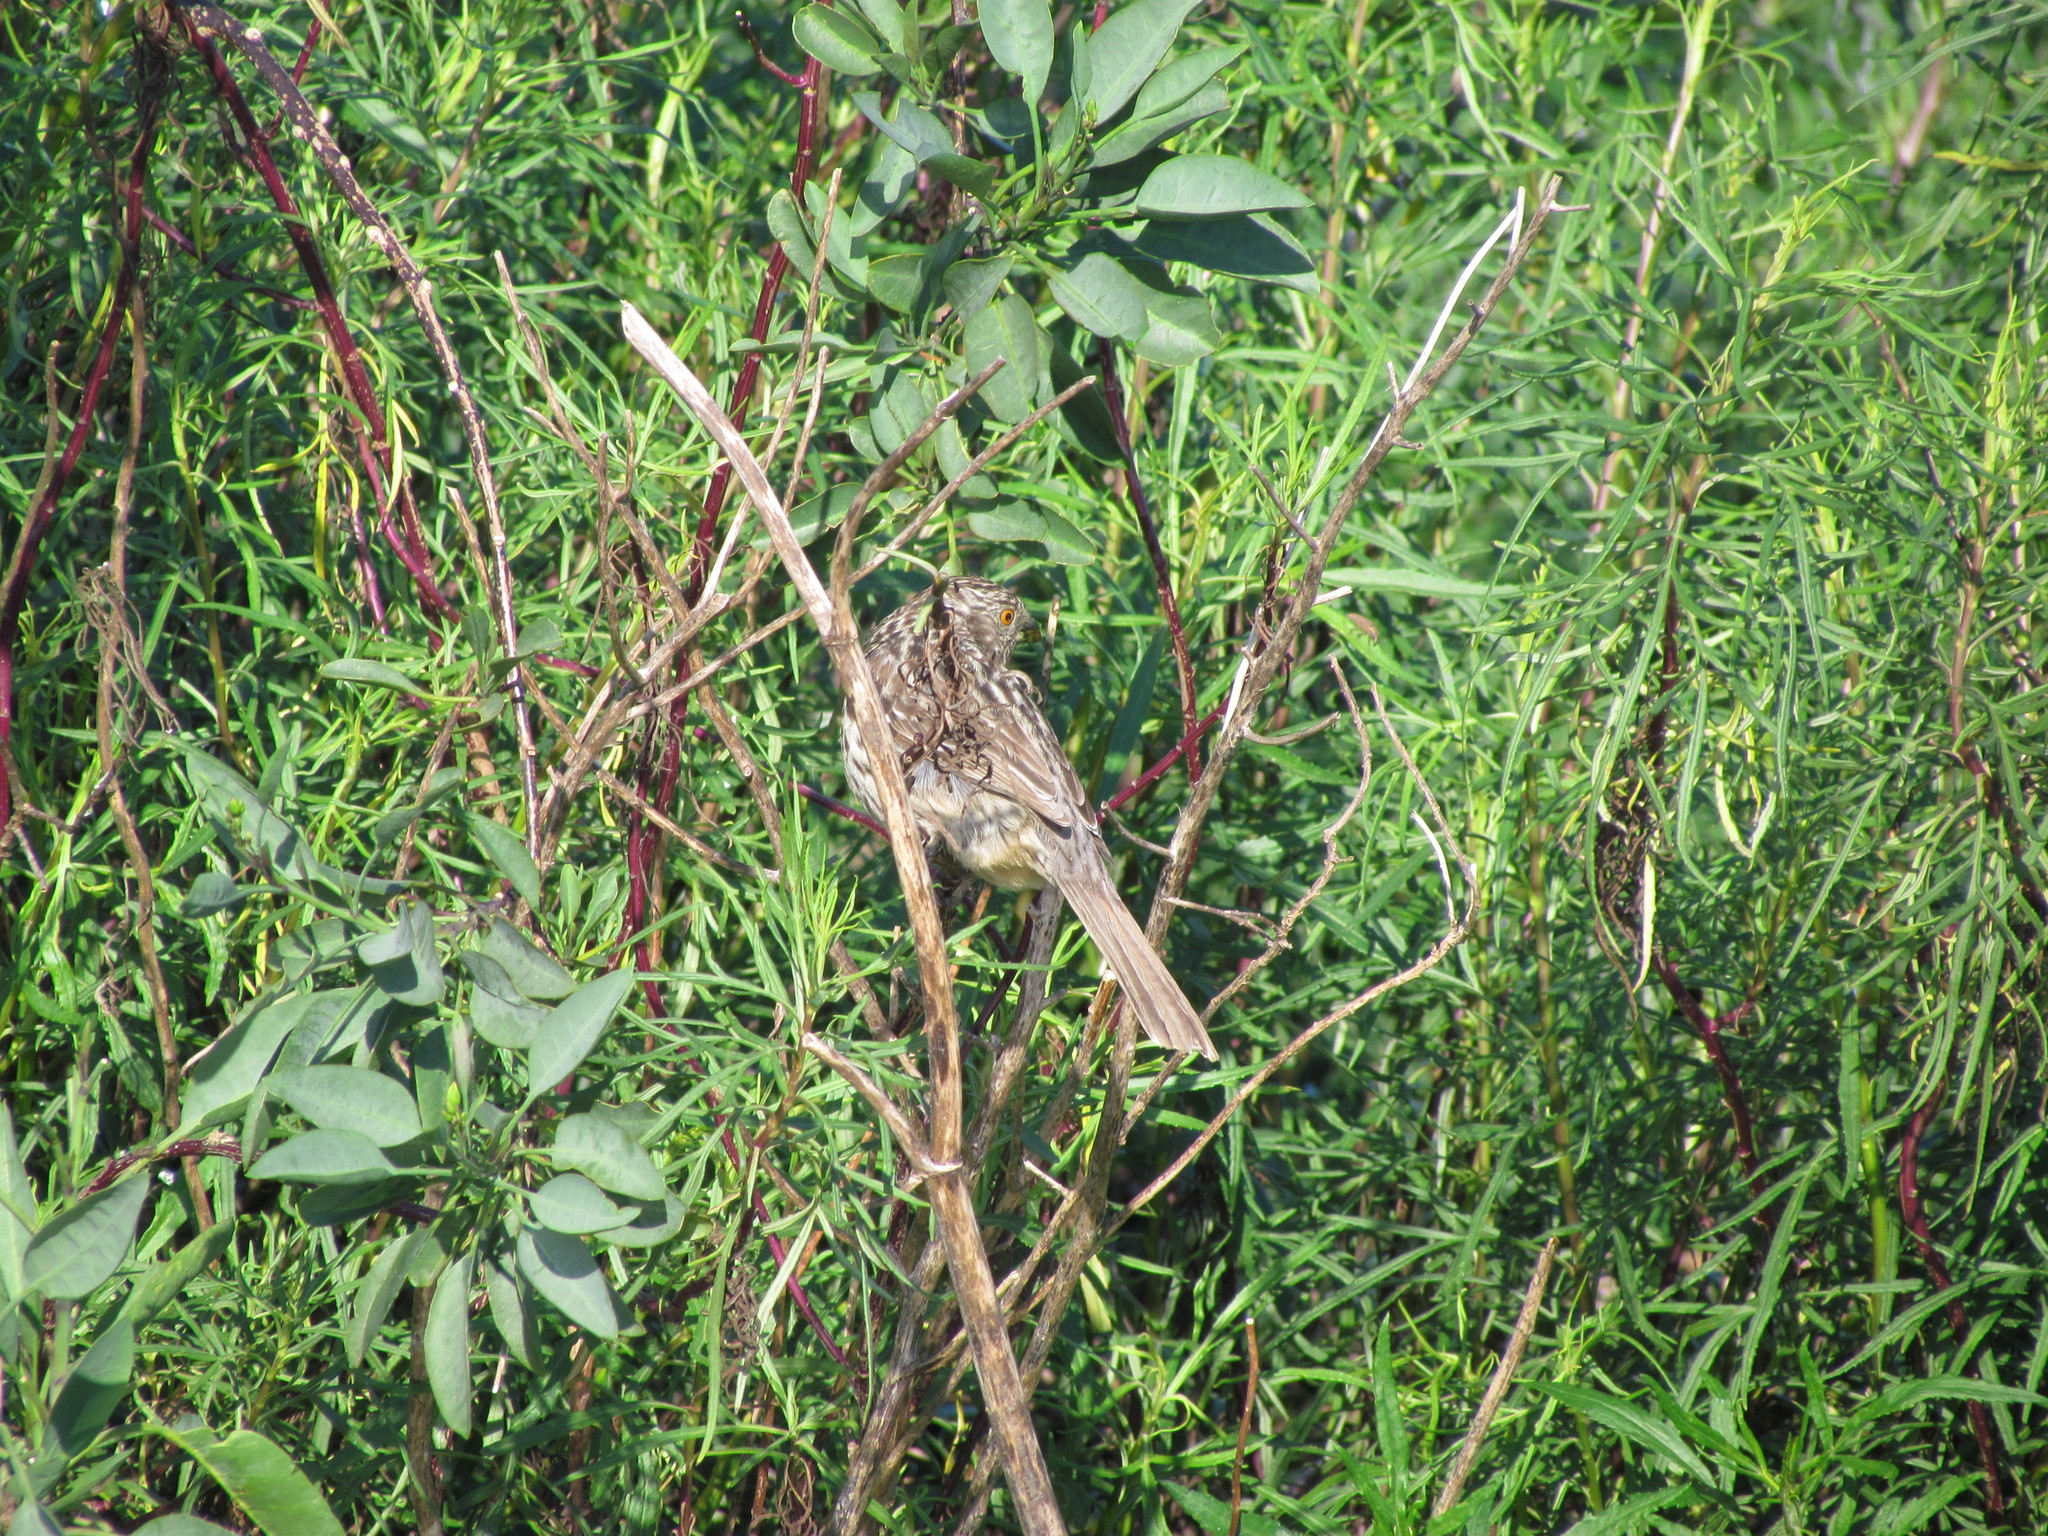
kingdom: Animalia
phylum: Chordata
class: Aves
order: Passeriformes
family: Cotingidae
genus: Phytotoma
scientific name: Phytotoma rutila
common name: White-tipped plantcutter
